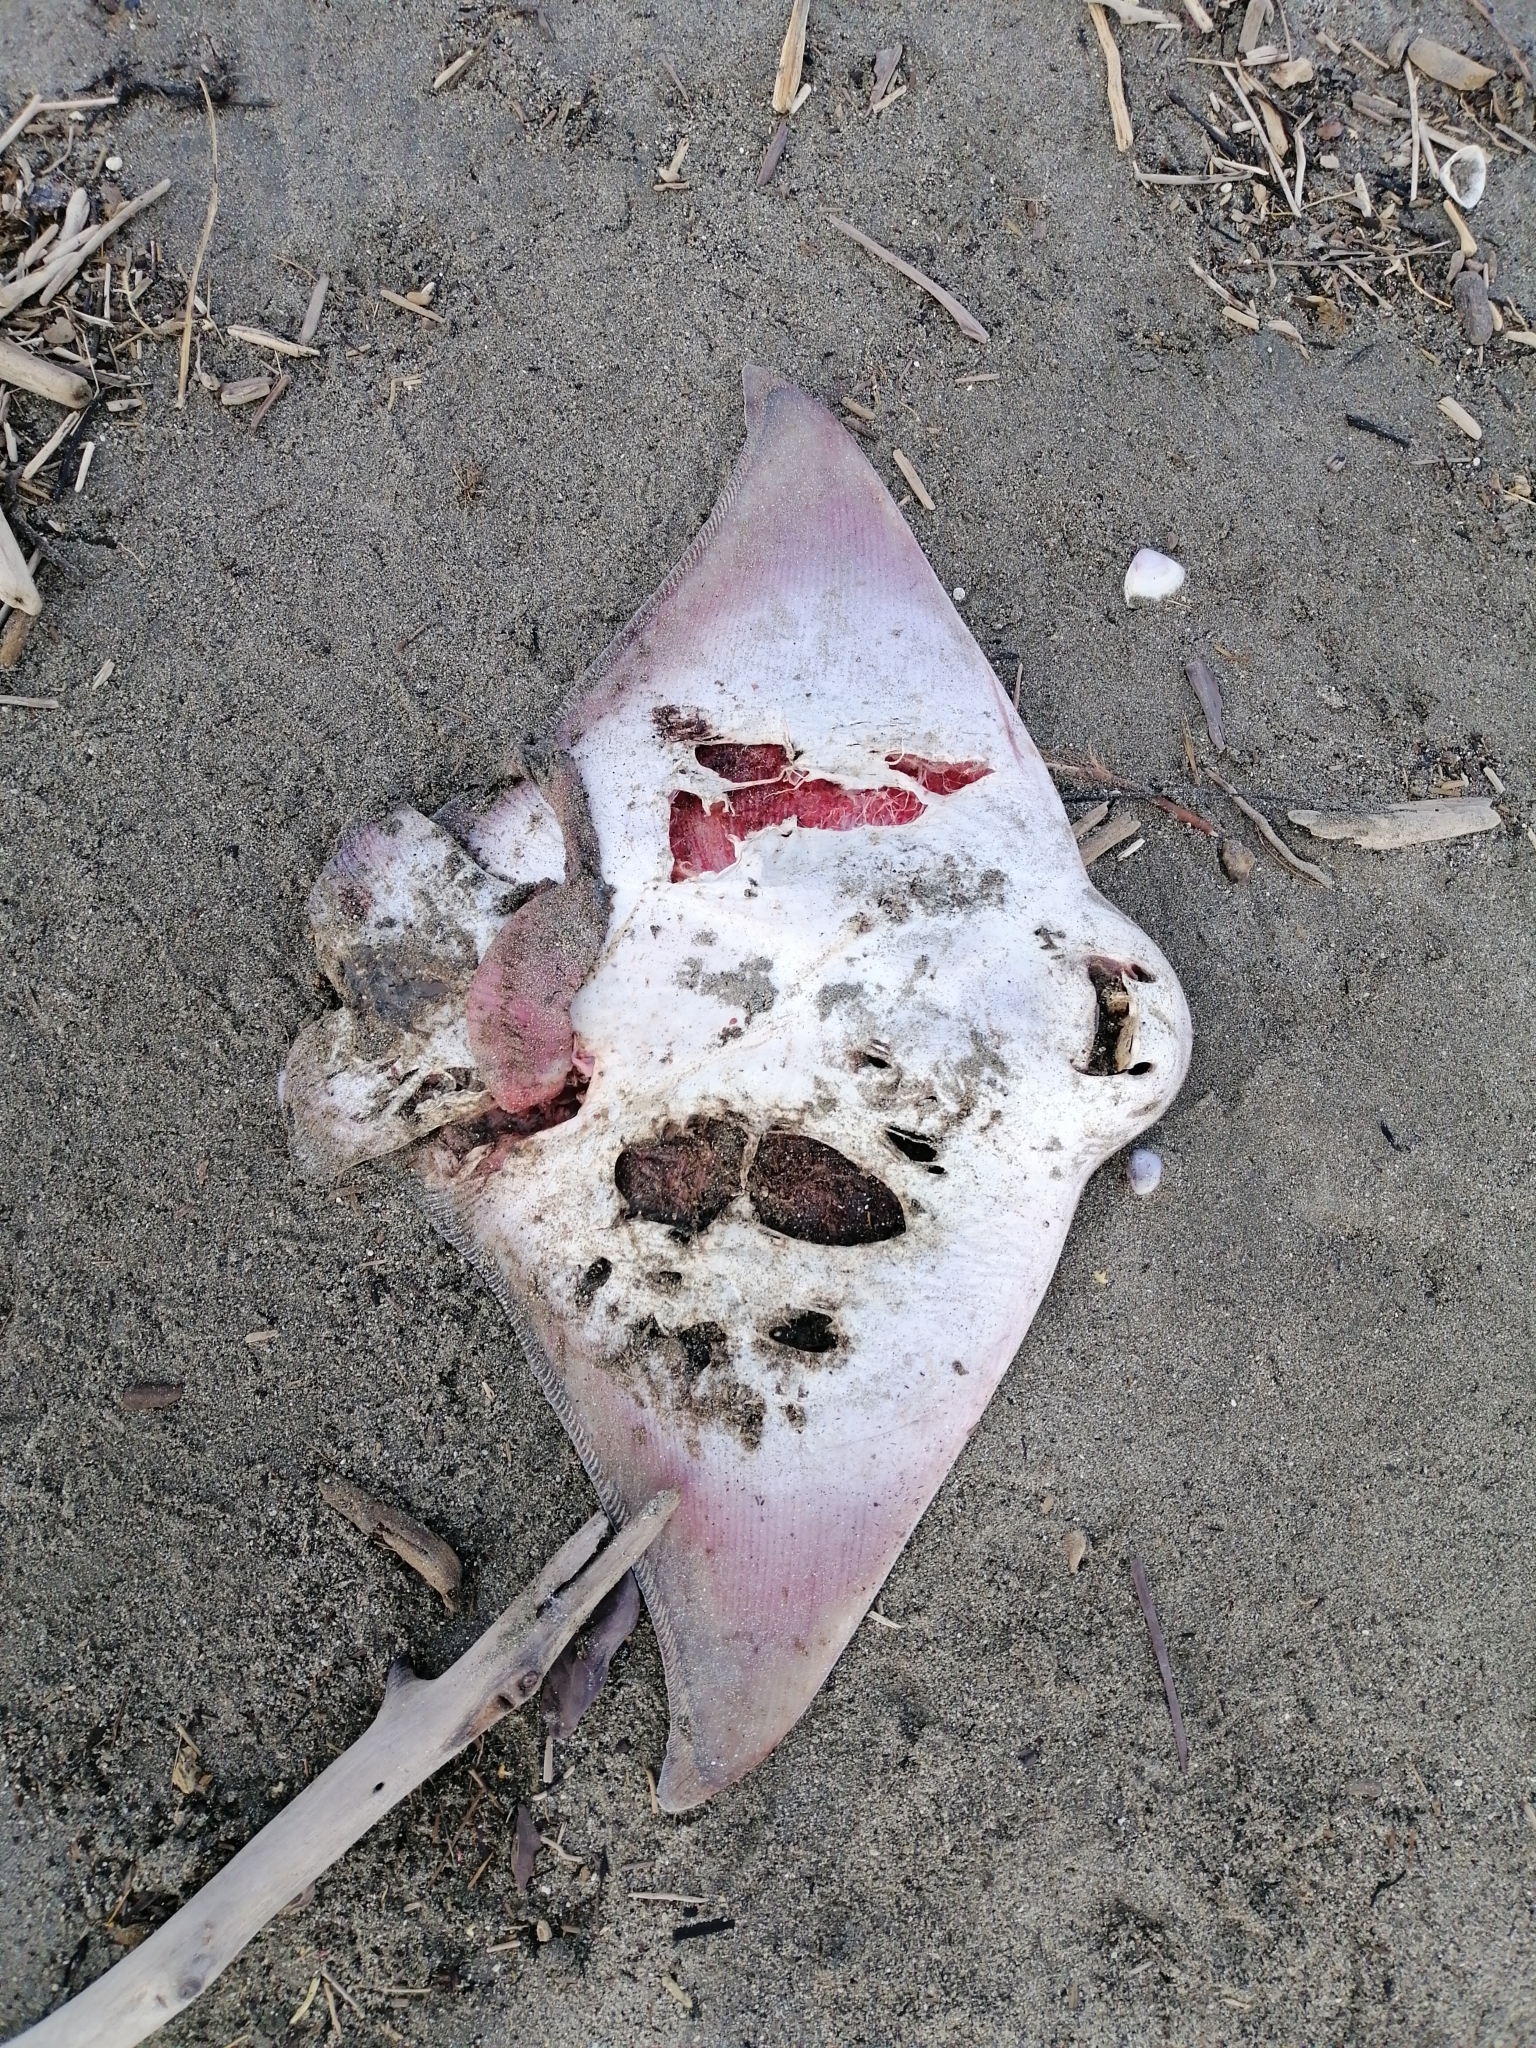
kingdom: Animalia
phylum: Chordata
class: Elasmobranchii
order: Myliobatiformes
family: Myliobatidae
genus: Myliobatis
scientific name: Myliobatis tenuicaudatus
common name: Eagle ray
